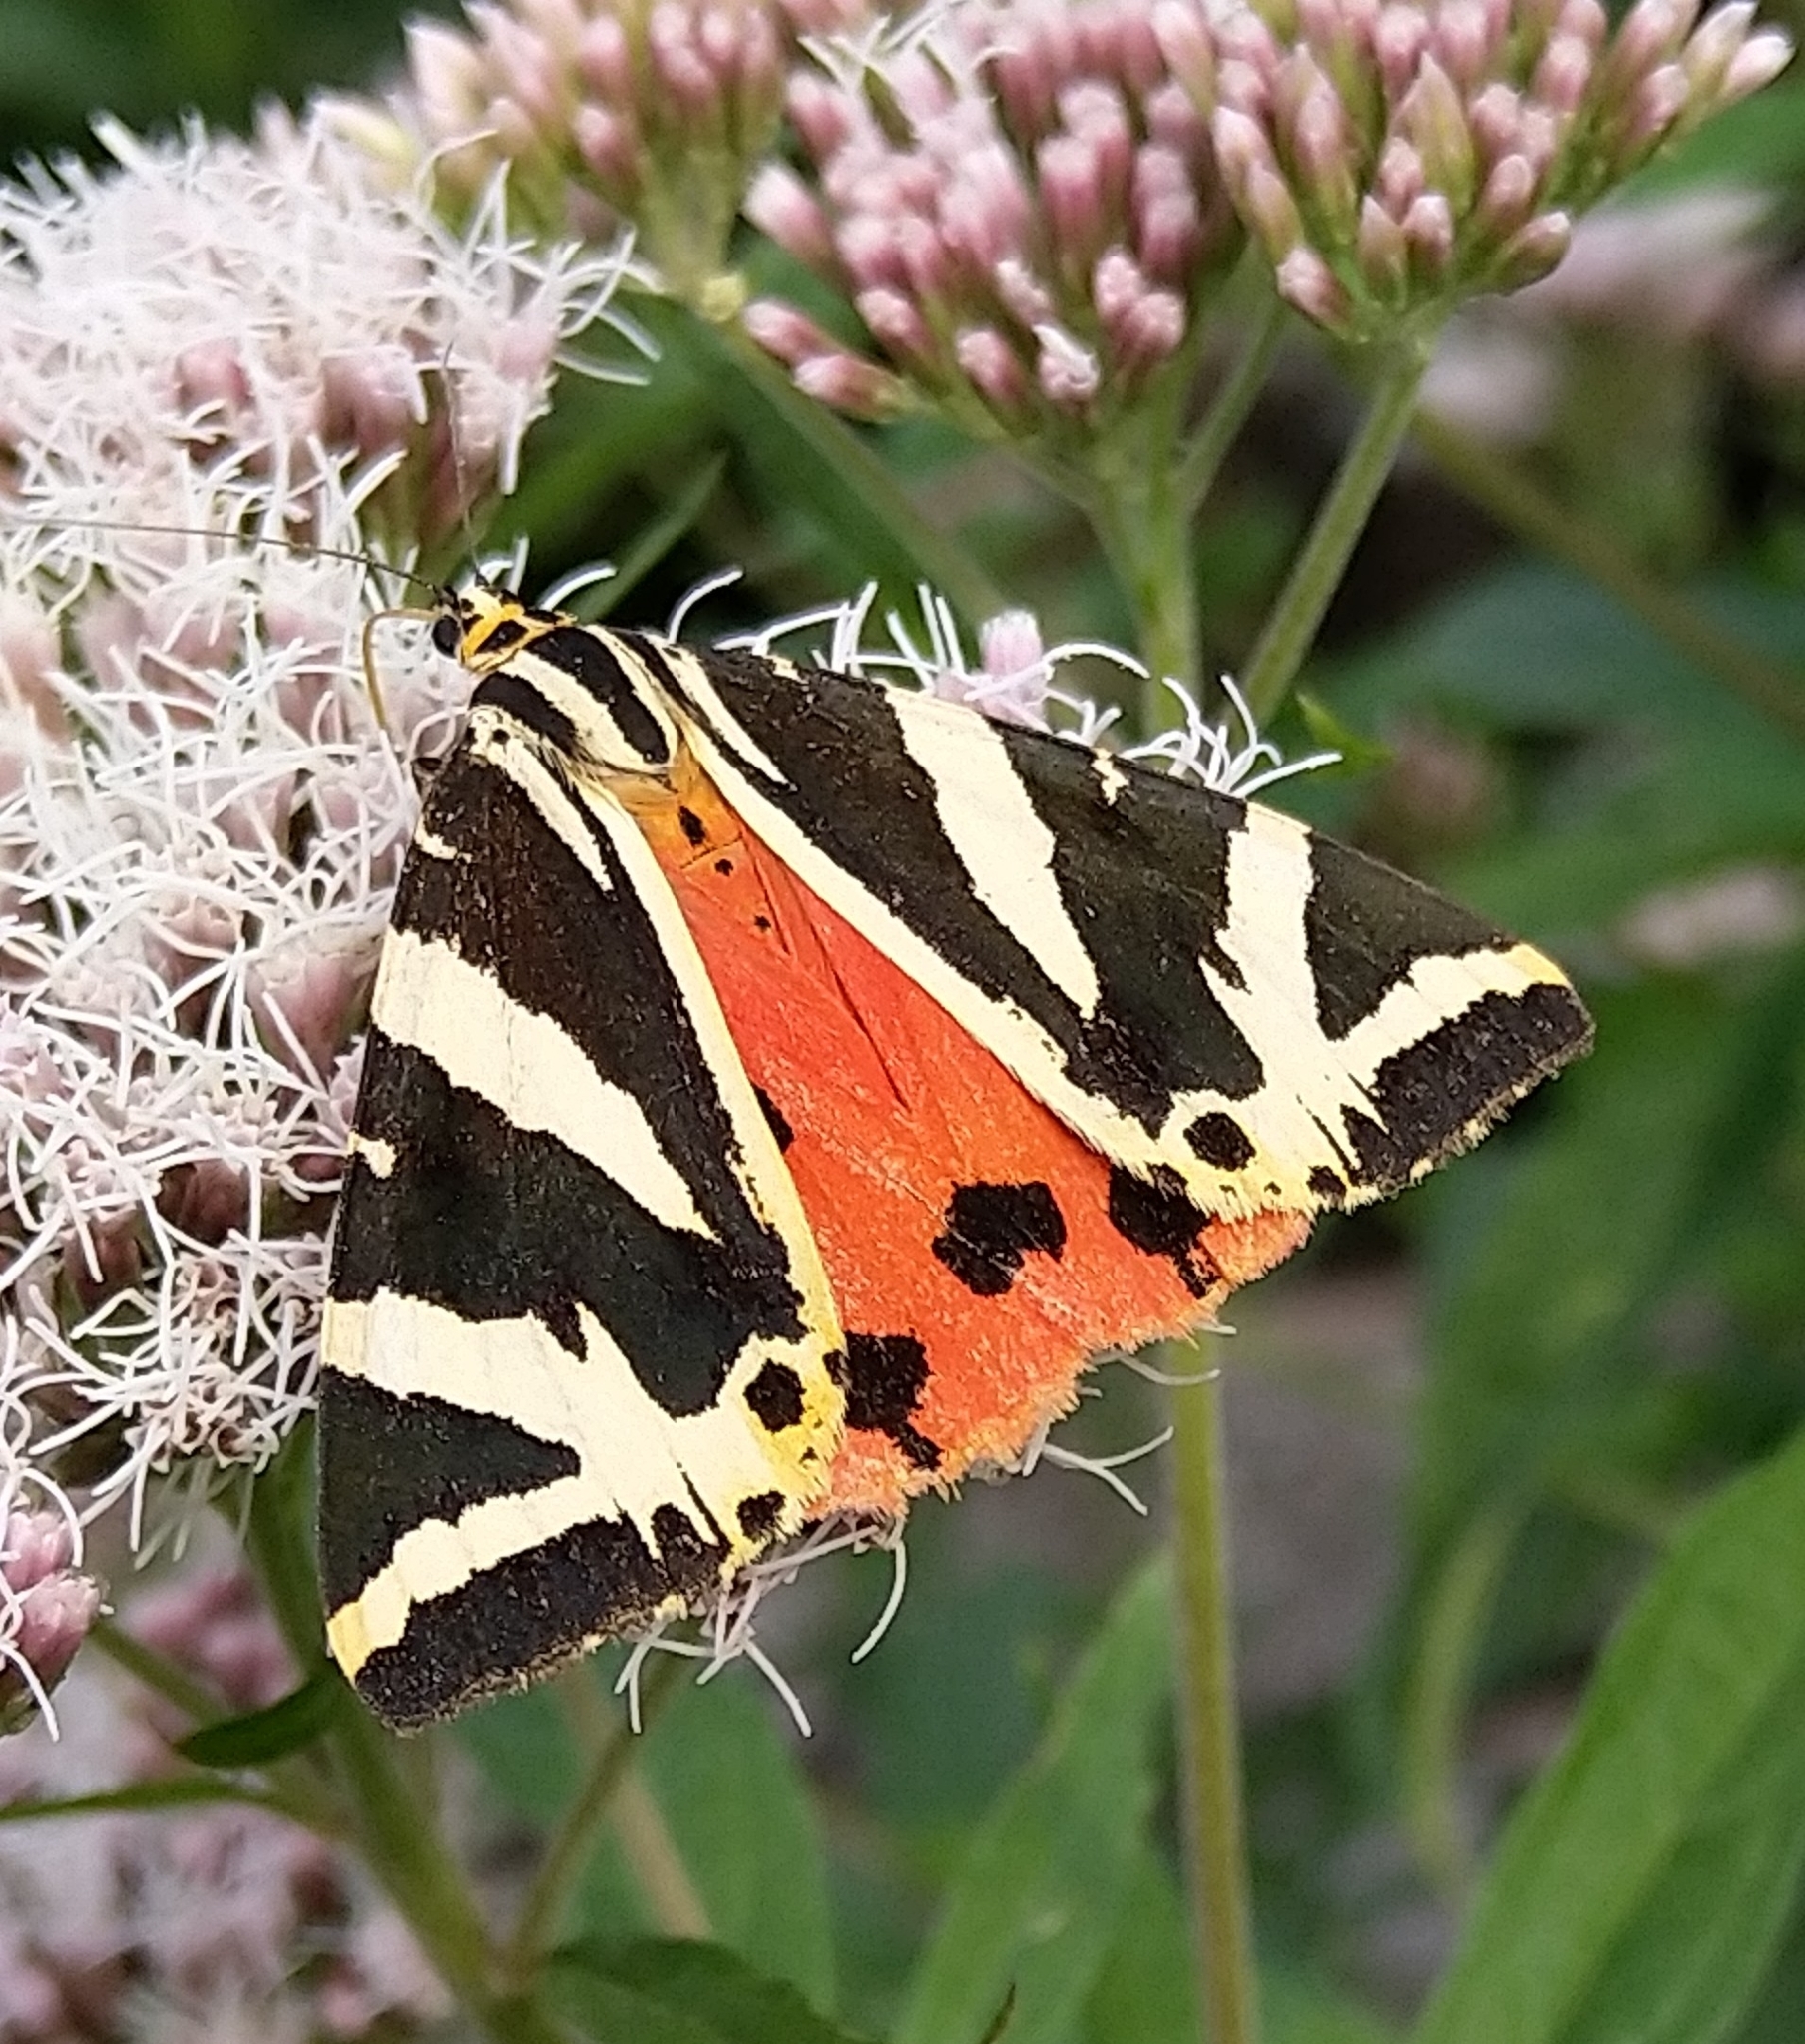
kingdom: Animalia
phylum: Arthropoda
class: Insecta
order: Lepidoptera
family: Erebidae
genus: Euplagia
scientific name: Euplagia quadripunctaria
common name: Jersey tiger
